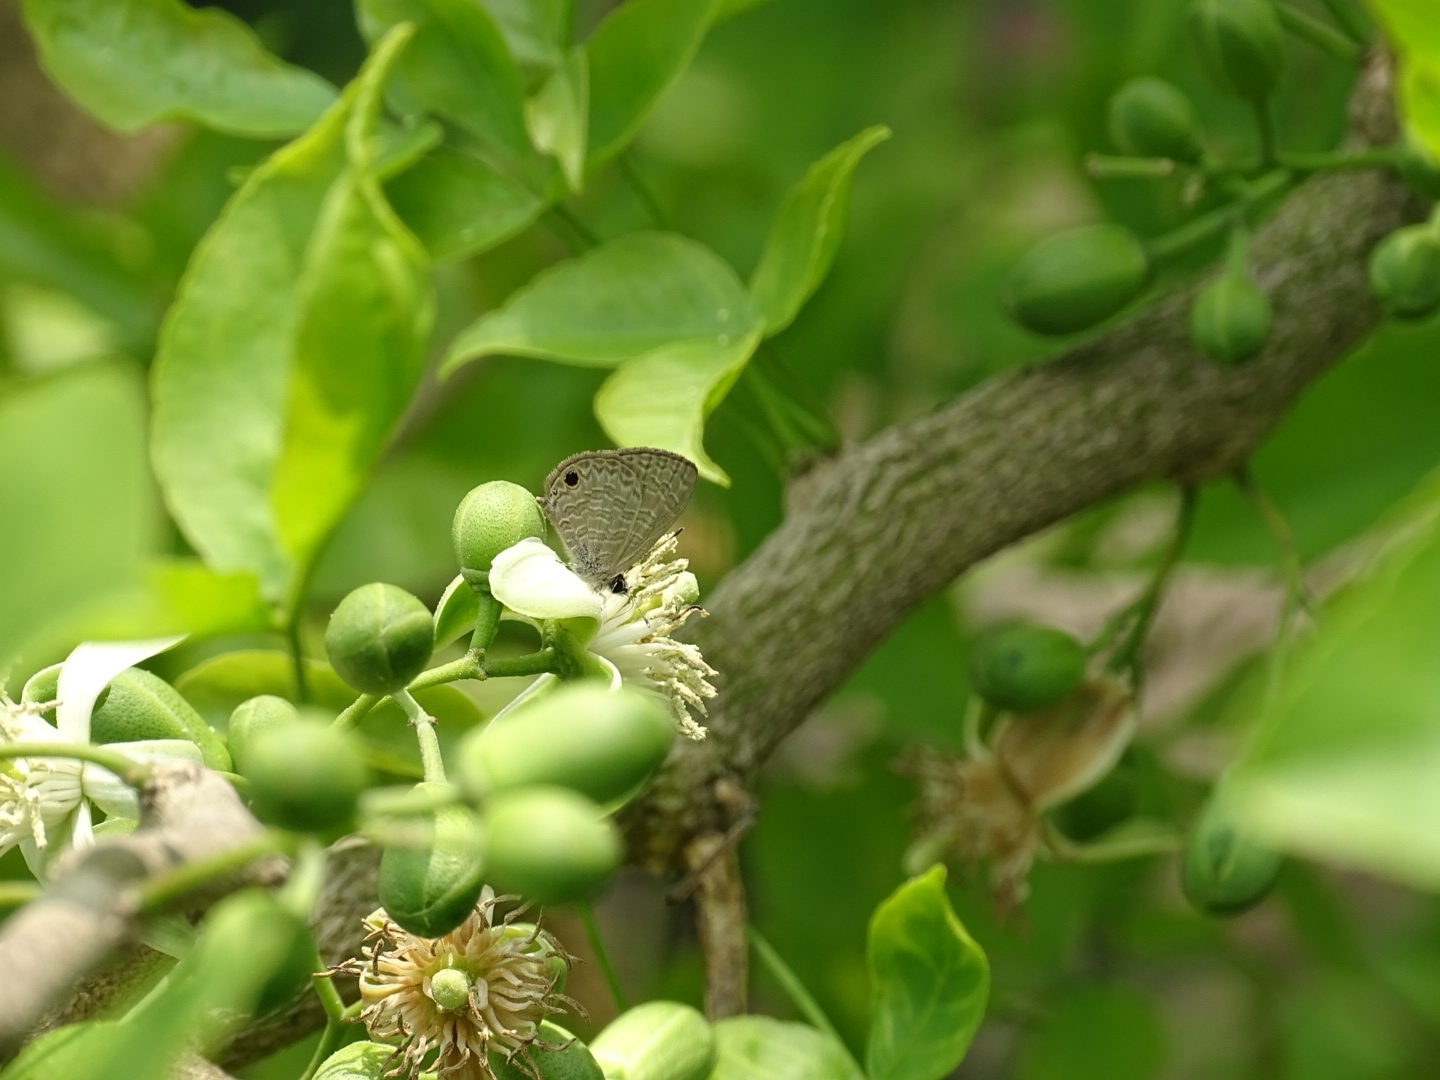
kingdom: Animalia
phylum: Arthropoda
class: Insecta
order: Lepidoptera
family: Lycaenidae
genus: Prosotas
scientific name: Prosotas dubiosa
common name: Tailless lineblue
